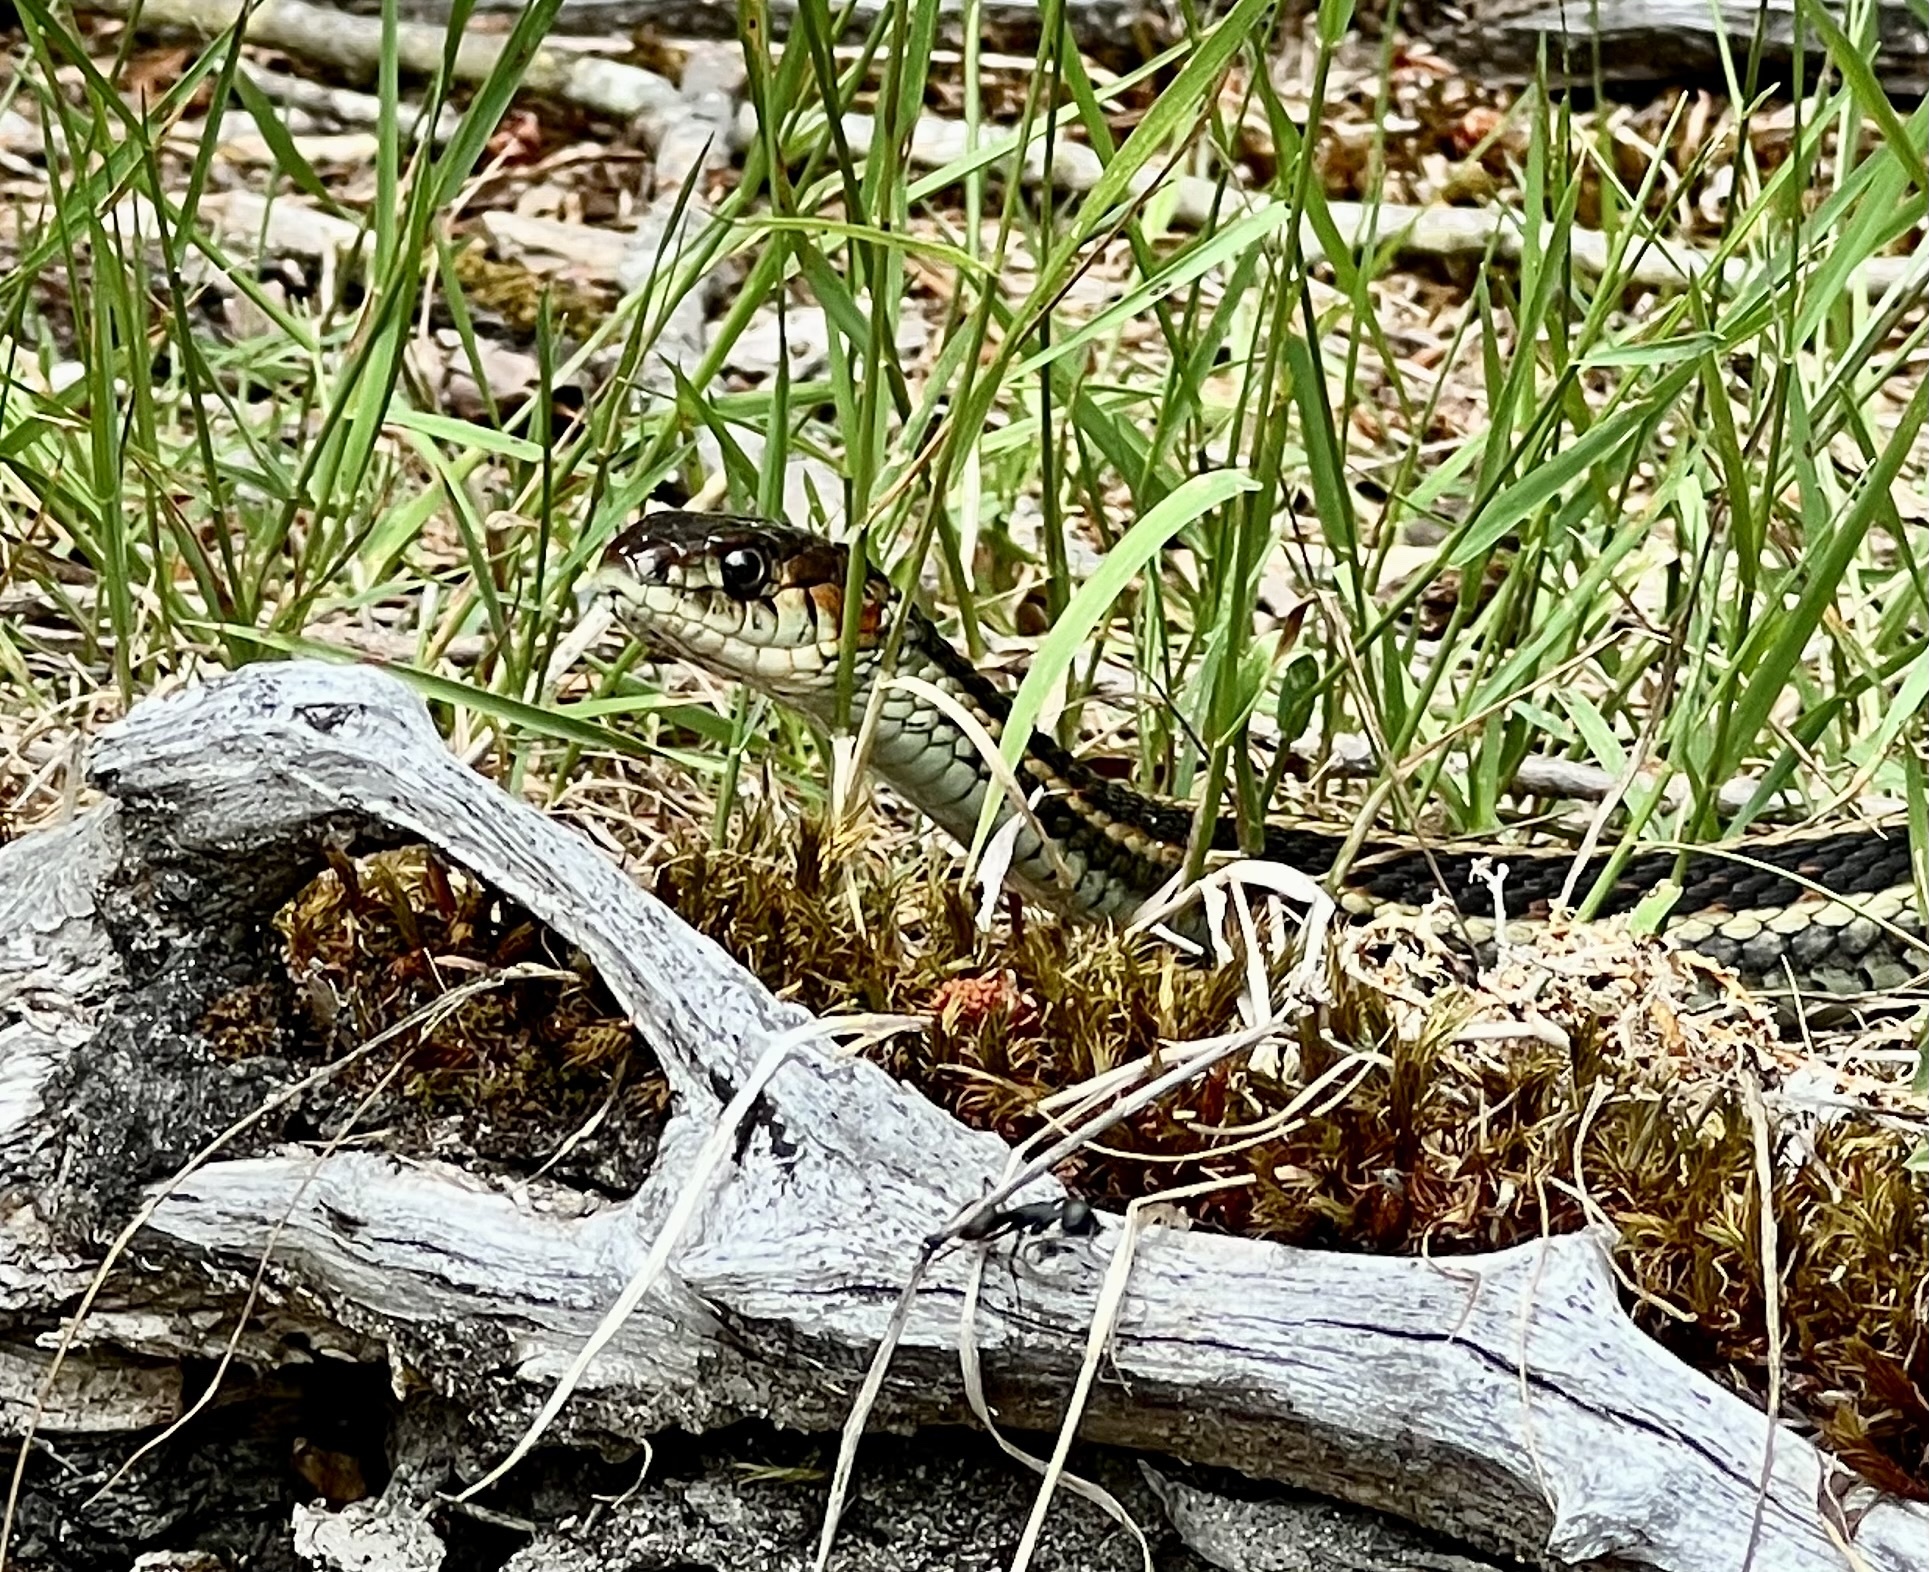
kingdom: Animalia
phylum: Chordata
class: Squamata
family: Colubridae
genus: Thamnophis
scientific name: Thamnophis sirtalis
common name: Common garter snake
